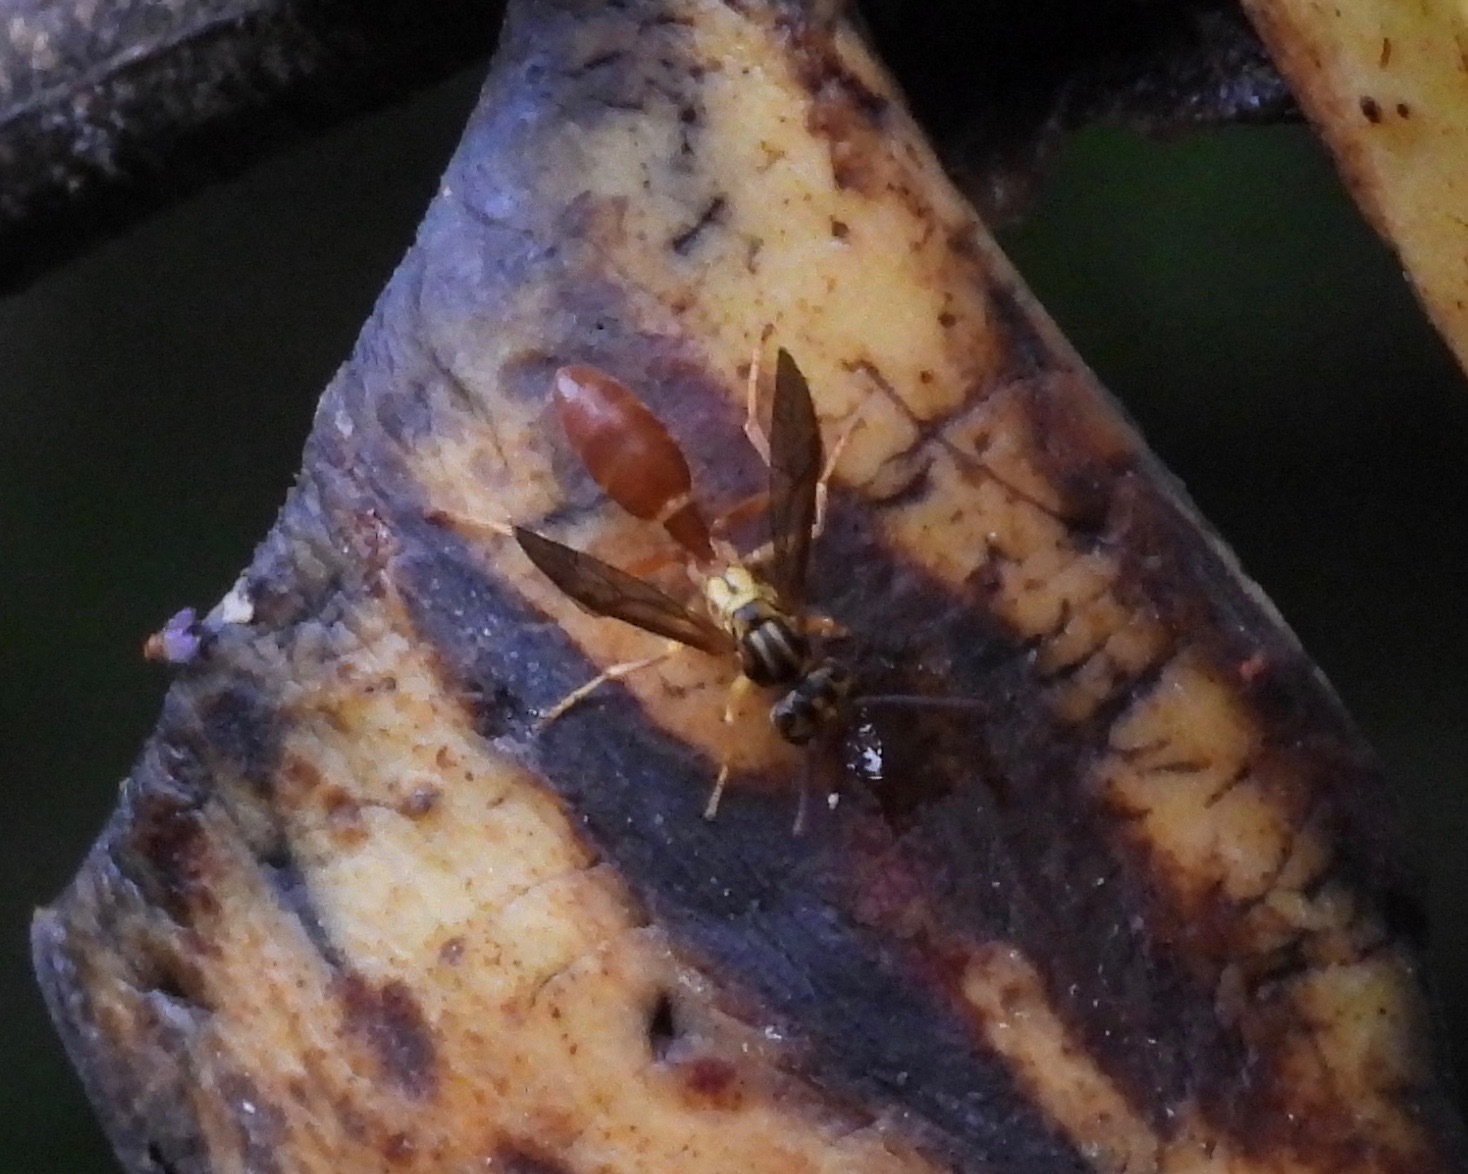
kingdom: Animalia
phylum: Arthropoda
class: Insecta
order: Hymenoptera
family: Vespidae
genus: Agelaia
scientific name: Agelaia centralis
